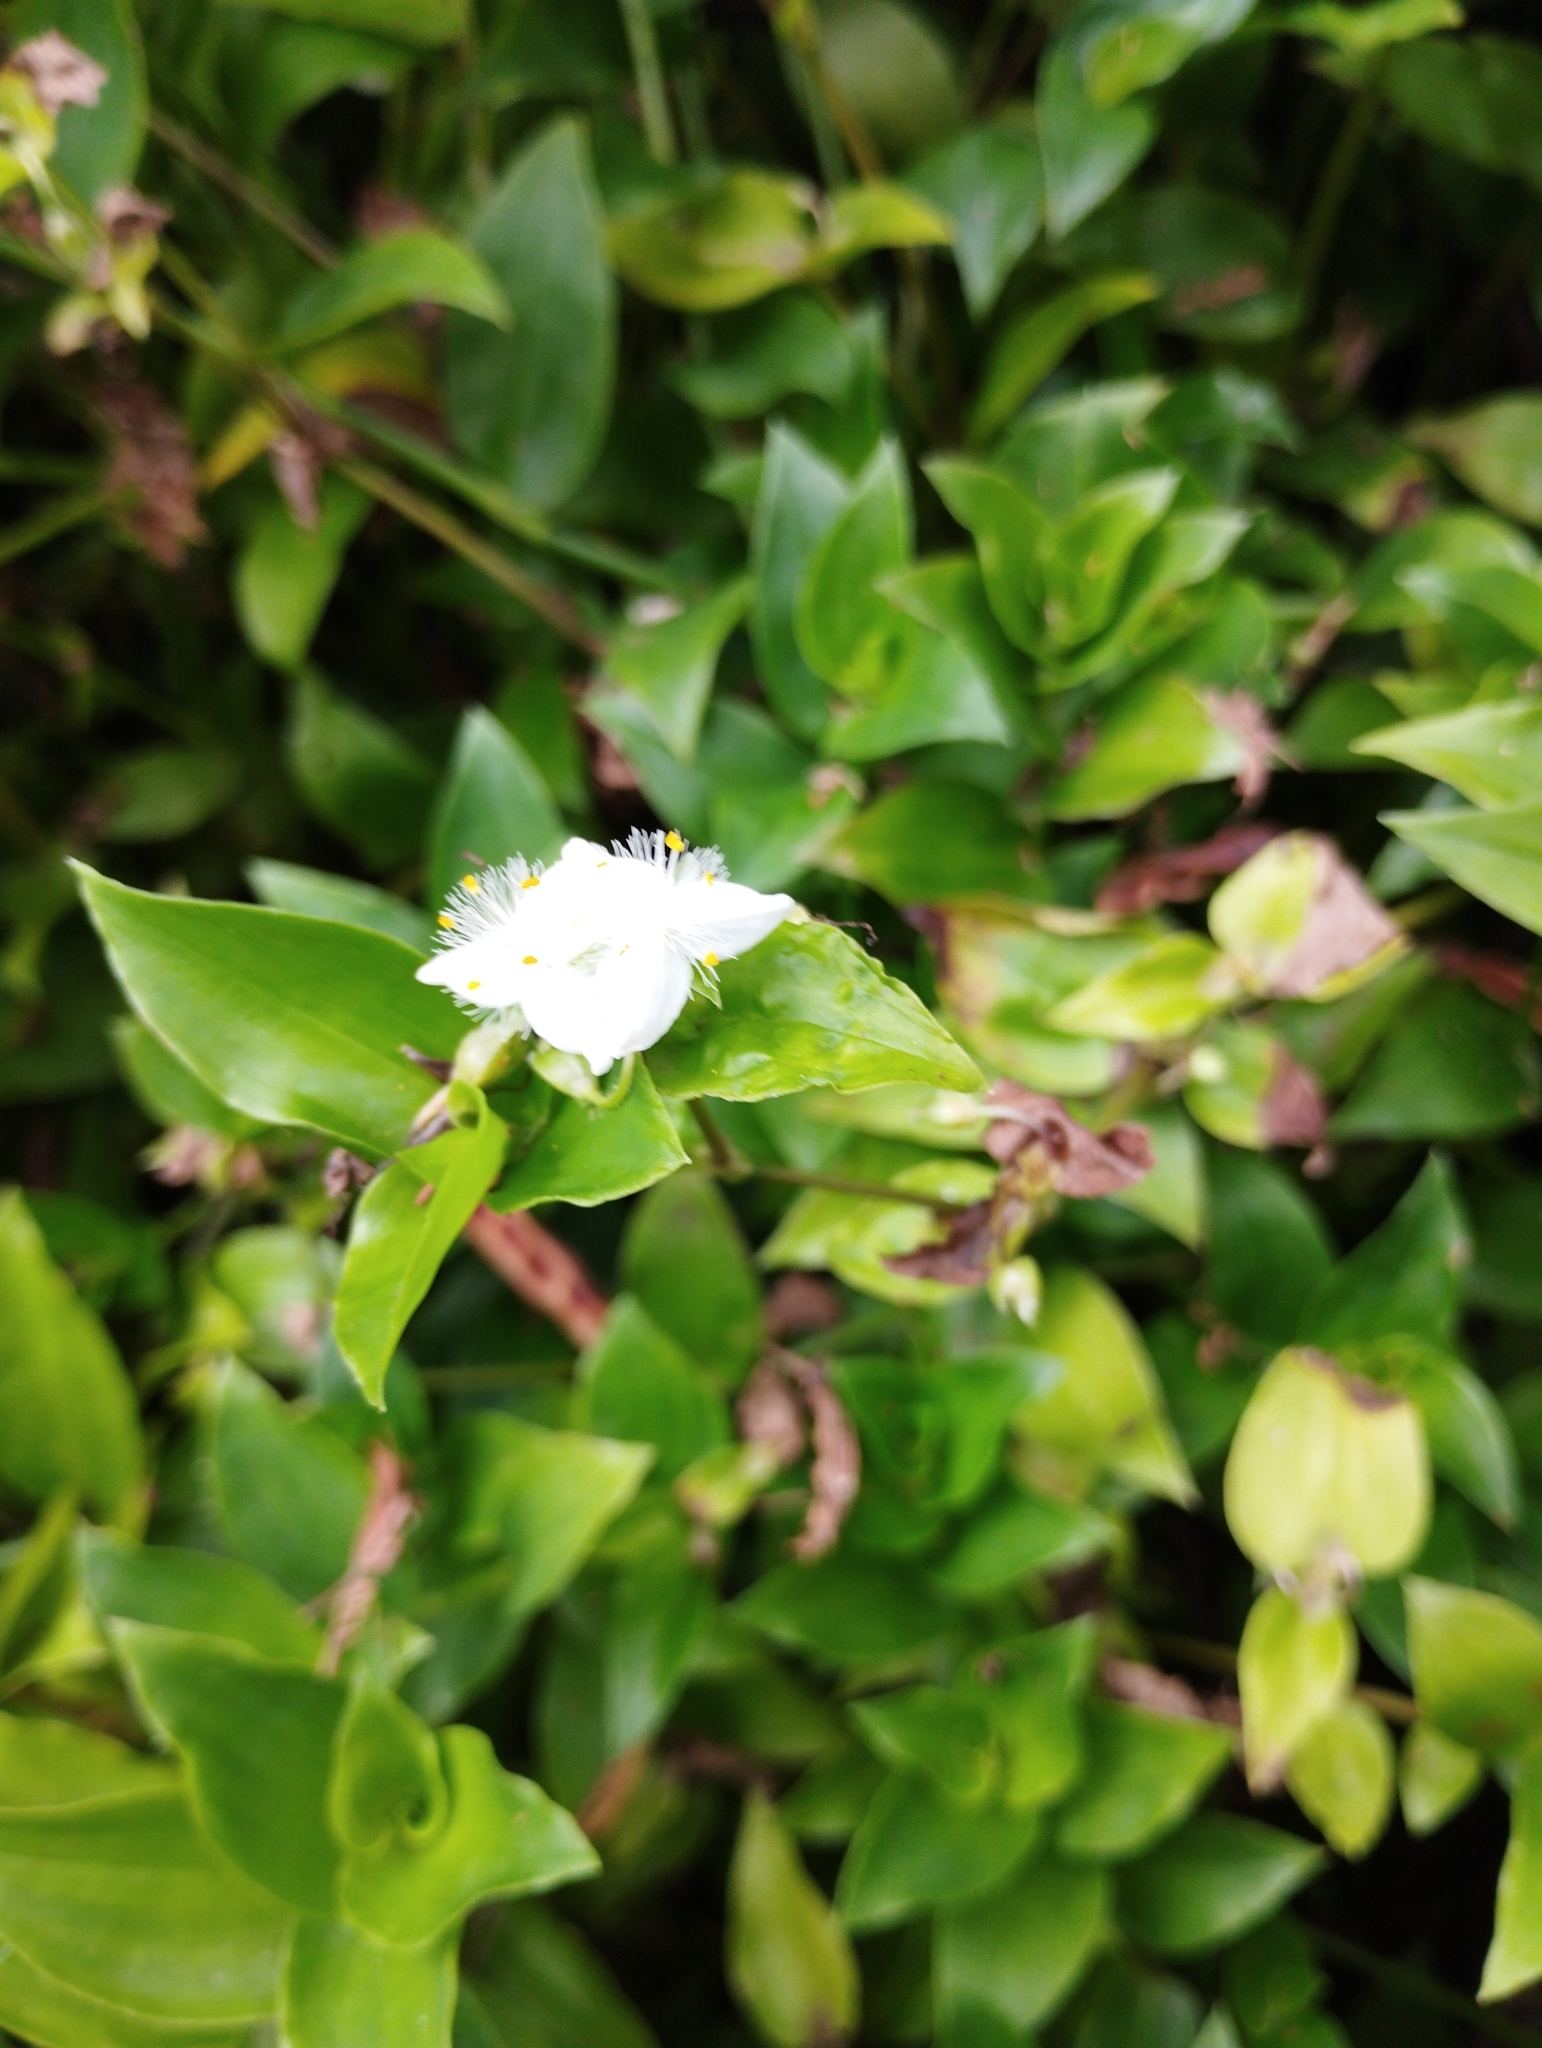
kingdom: Plantae
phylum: Tracheophyta
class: Liliopsida
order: Commelinales
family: Commelinaceae
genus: Tradescantia
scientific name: Tradescantia fluminensis
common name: Wandering-jew
